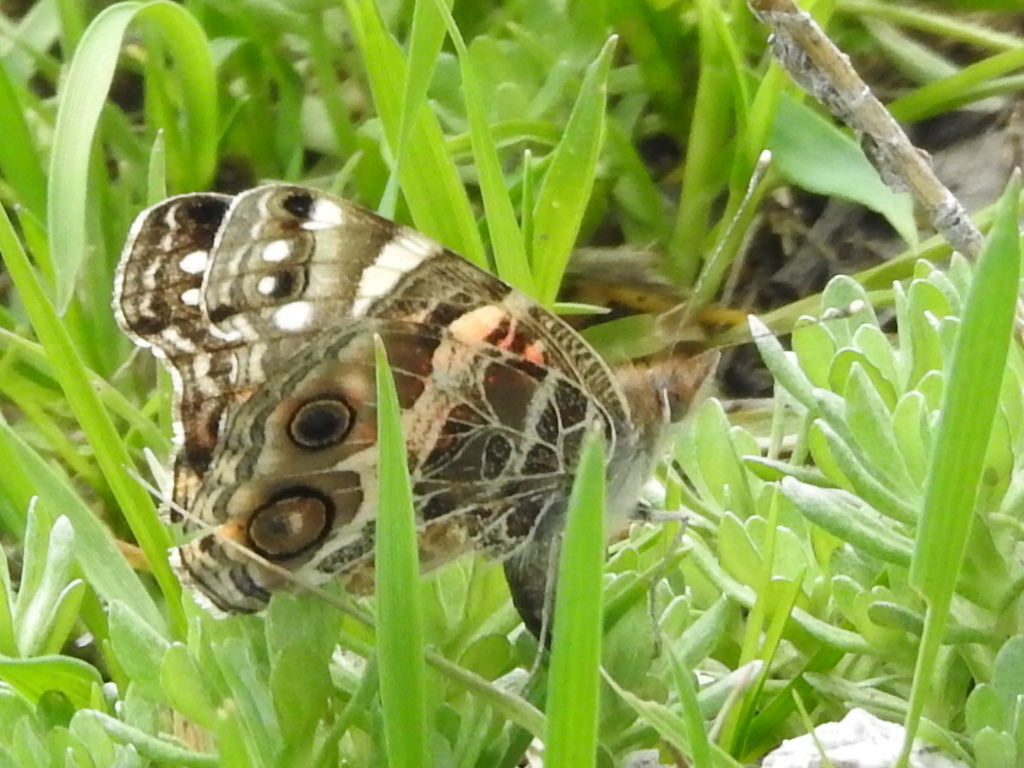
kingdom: Animalia
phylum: Arthropoda
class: Insecta
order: Lepidoptera
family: Nymphalidae
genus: Vanessa
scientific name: Vanessa virginiensis
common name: American lady
